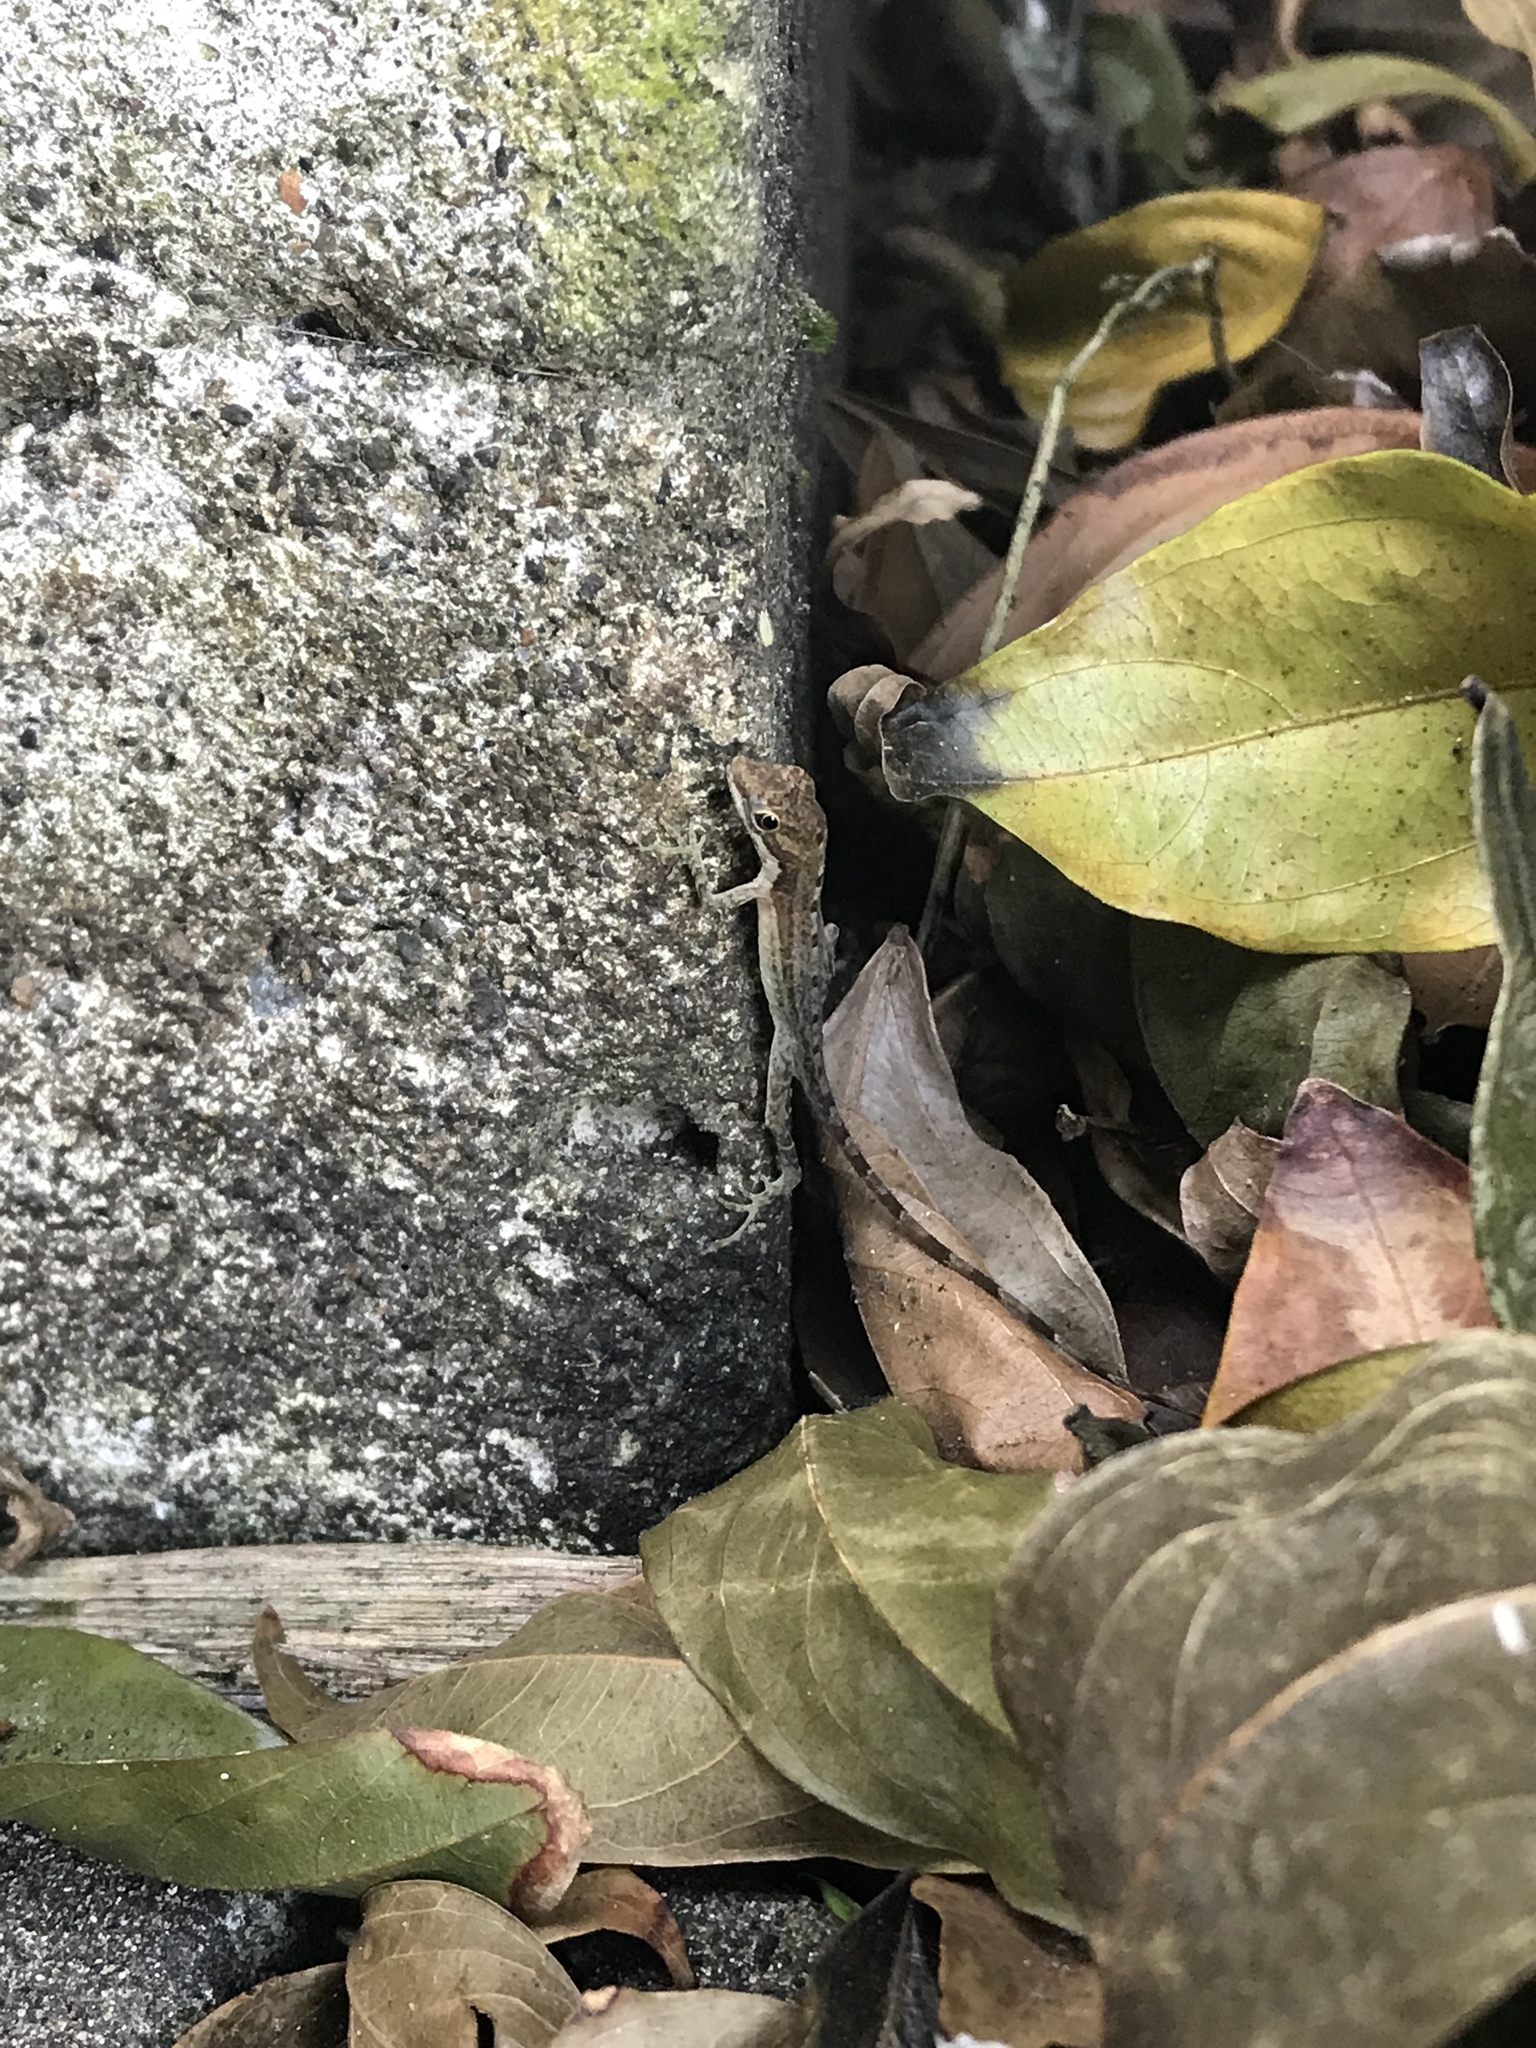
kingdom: Animalia
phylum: Chordata
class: Squamata
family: Dactyloidae
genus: Anolis
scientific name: Anolis limifrons
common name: Border anole
